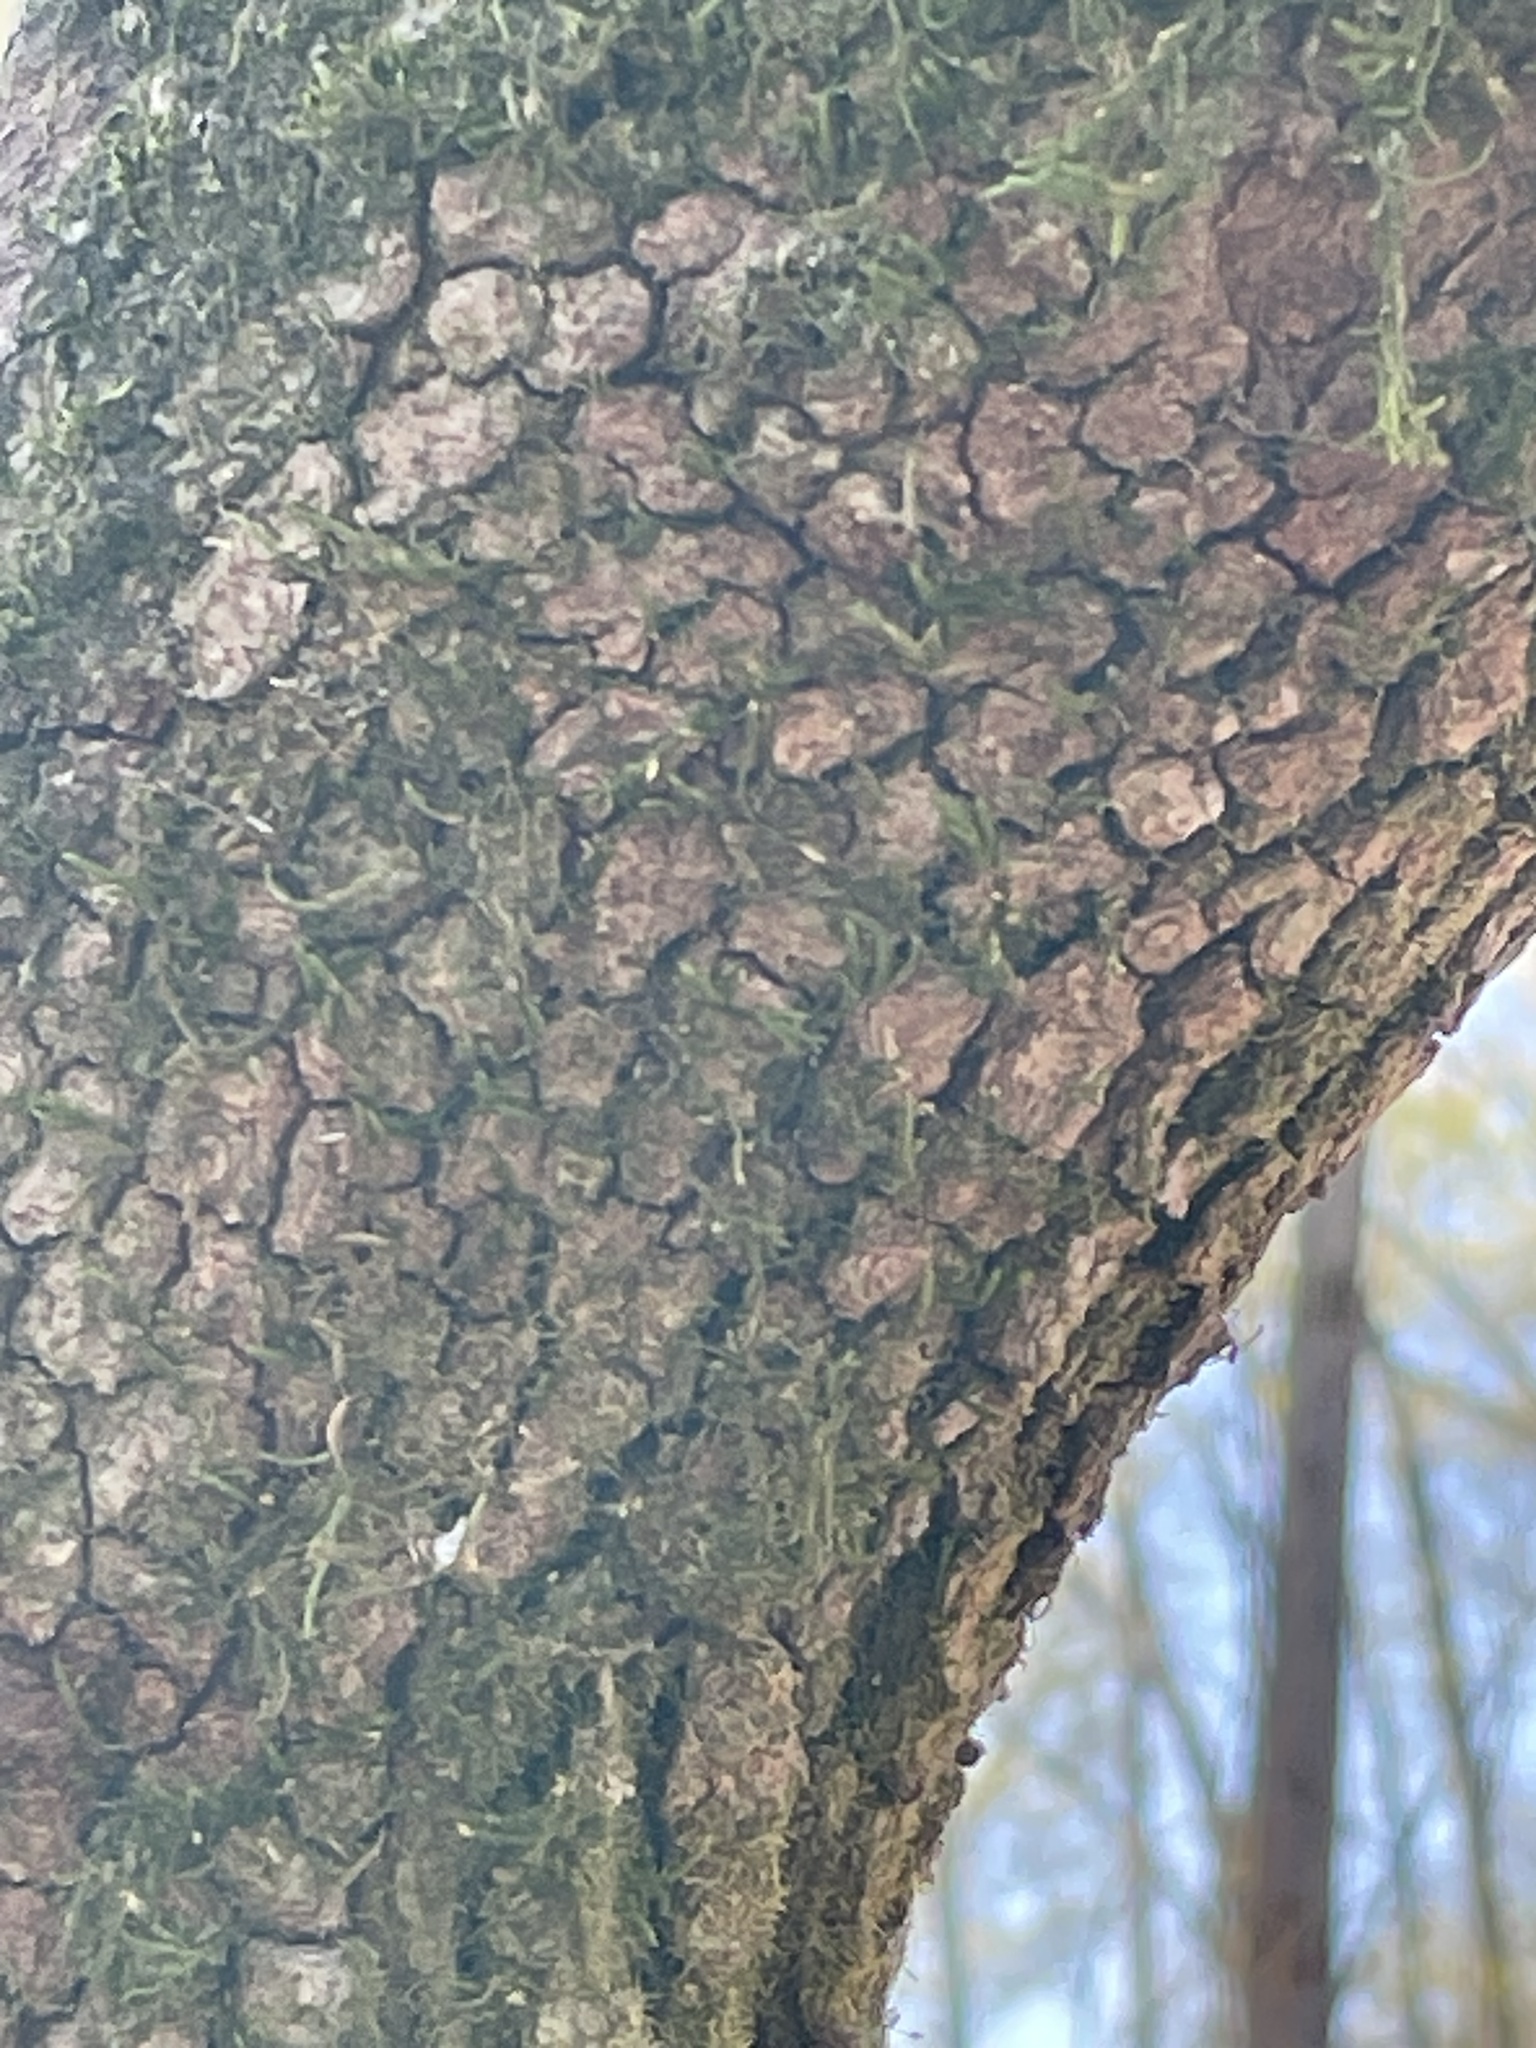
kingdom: Plantae
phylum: Tracheophyta
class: Magnoliopsida
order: Cornales
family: Cornaceae
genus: Cornus
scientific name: Cornus florida
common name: Flowering dogwood
